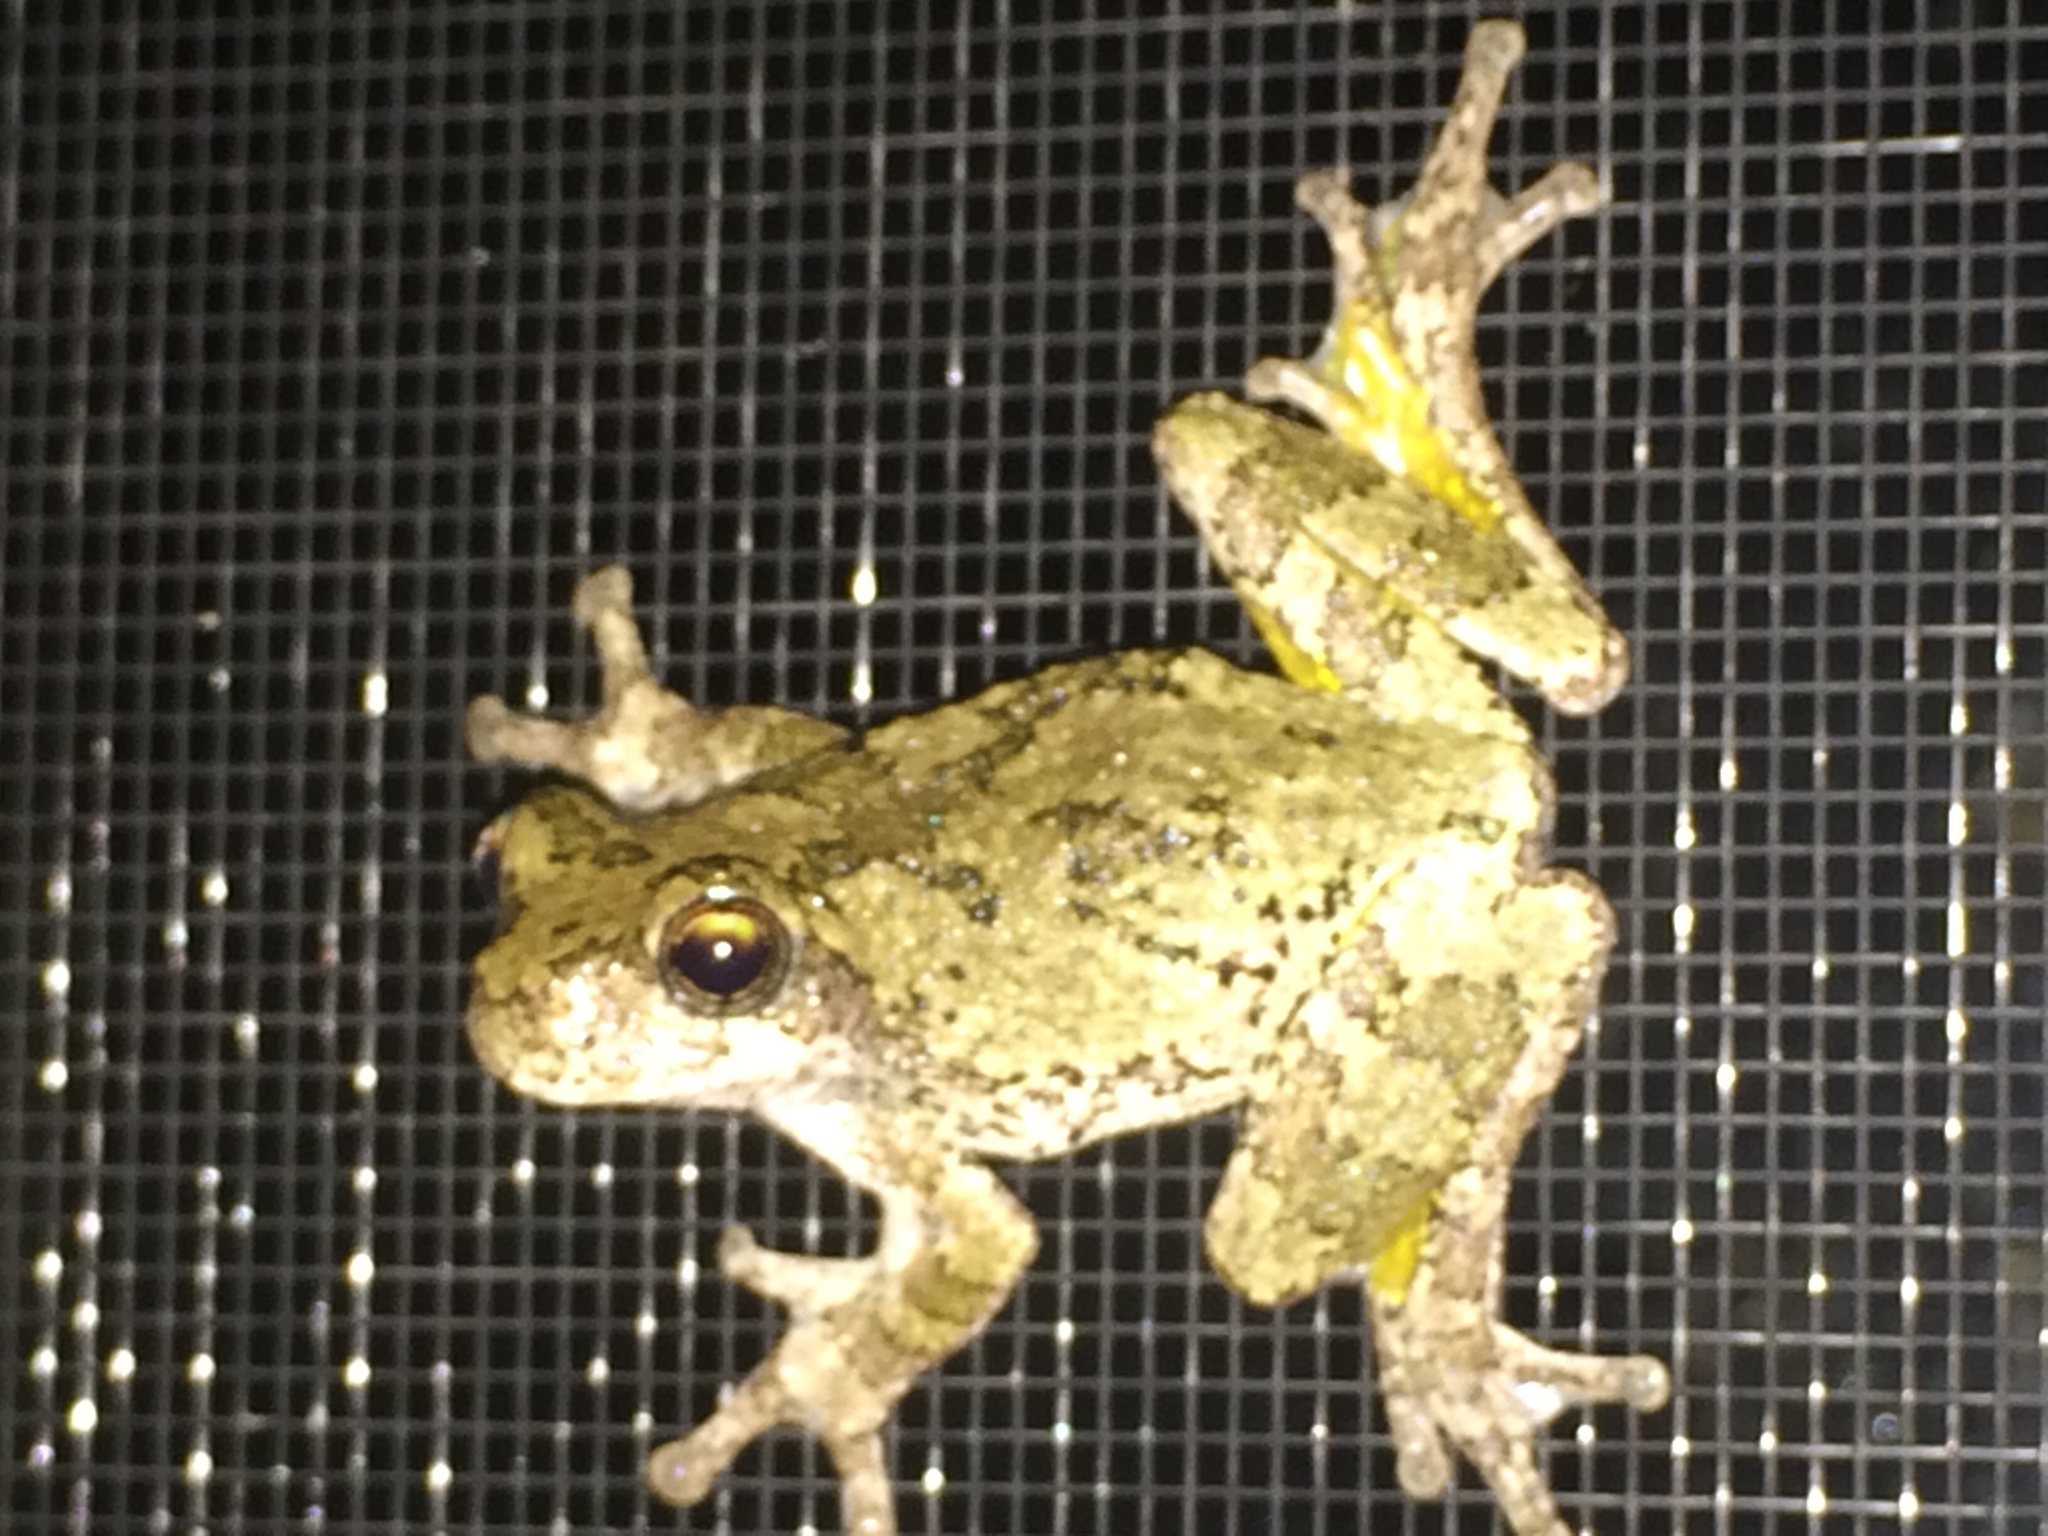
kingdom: Animalia
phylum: Chordata
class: Amphibia
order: Anura
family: Hylidae
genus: Dryophytes
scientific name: Dryophytes versicolor
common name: Gray treefrog
